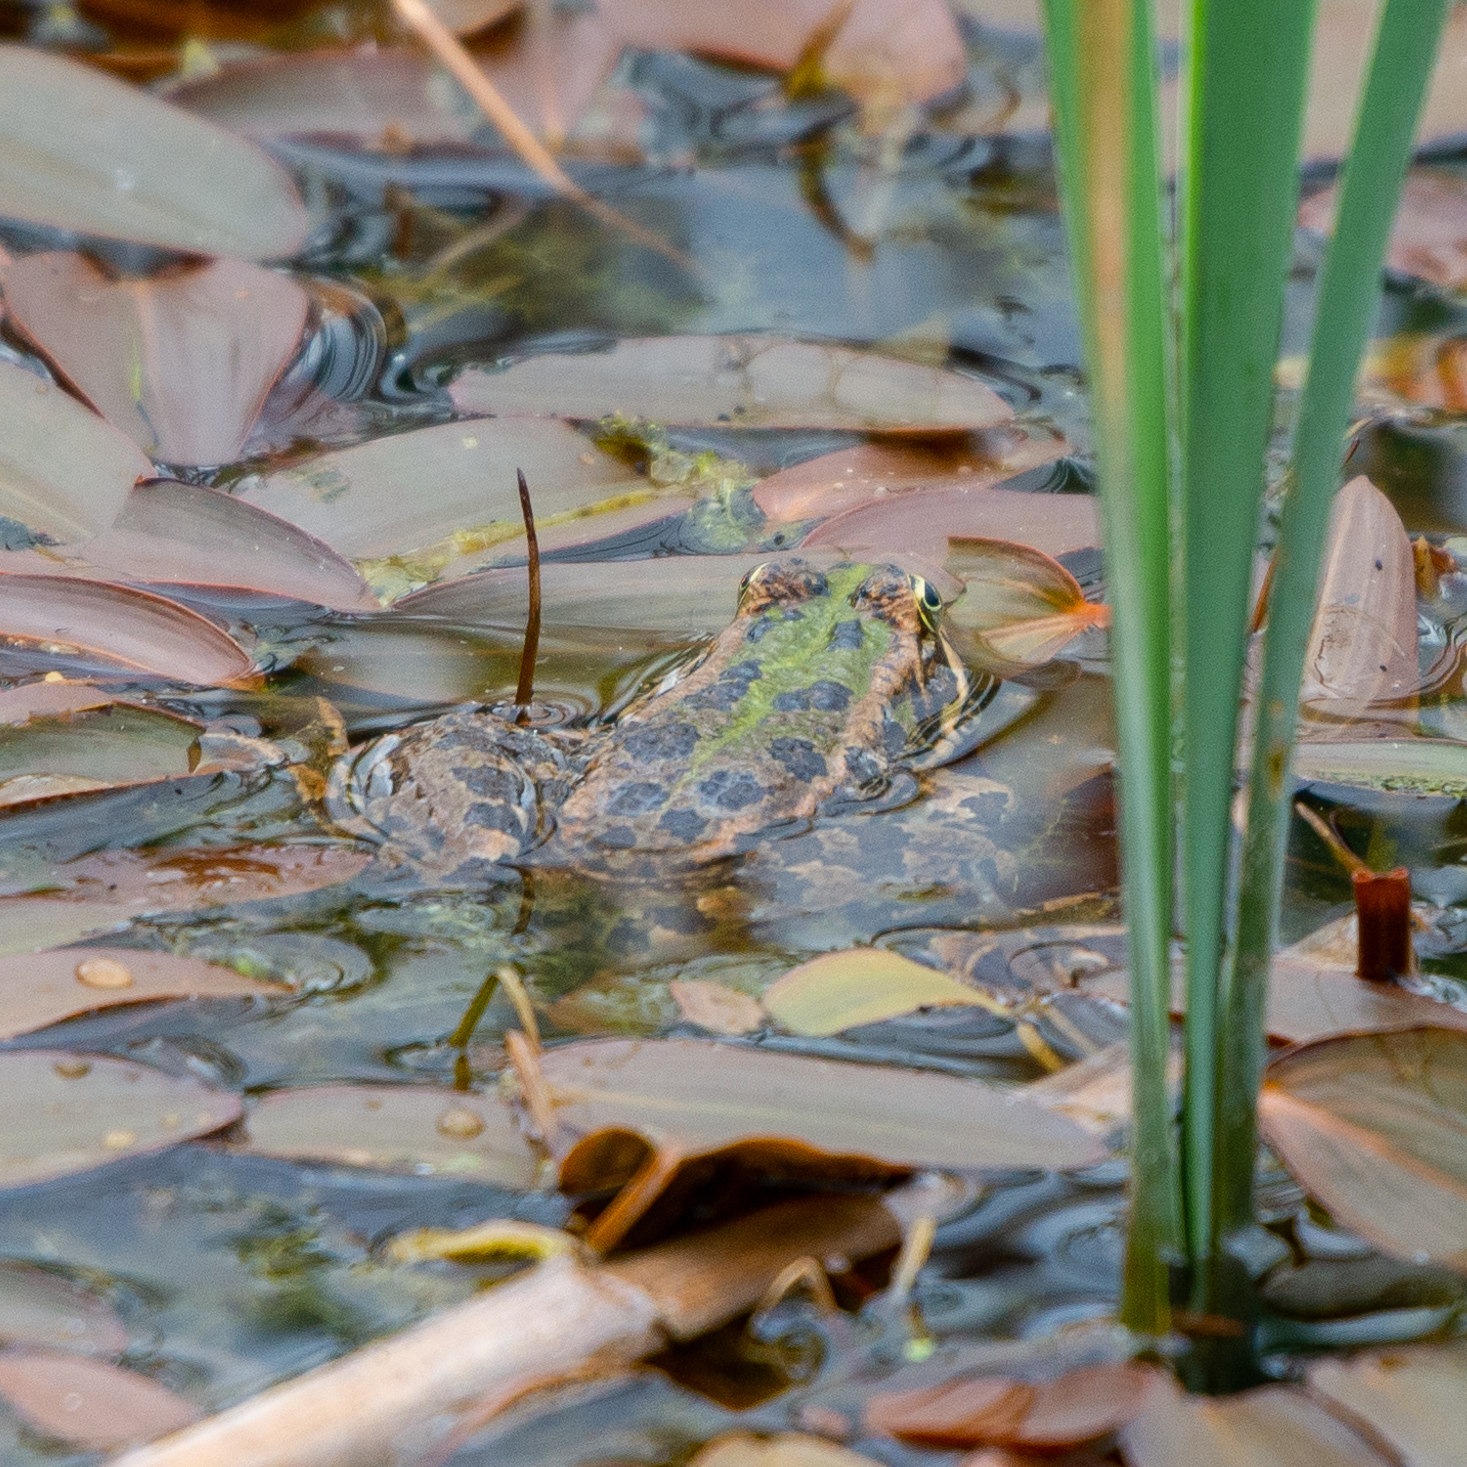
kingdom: Animalia
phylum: Chordata
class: Amphibia
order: Anura
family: Ranidae
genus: Pelophylax
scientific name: Pelophylax perezi
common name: Perez's frog
